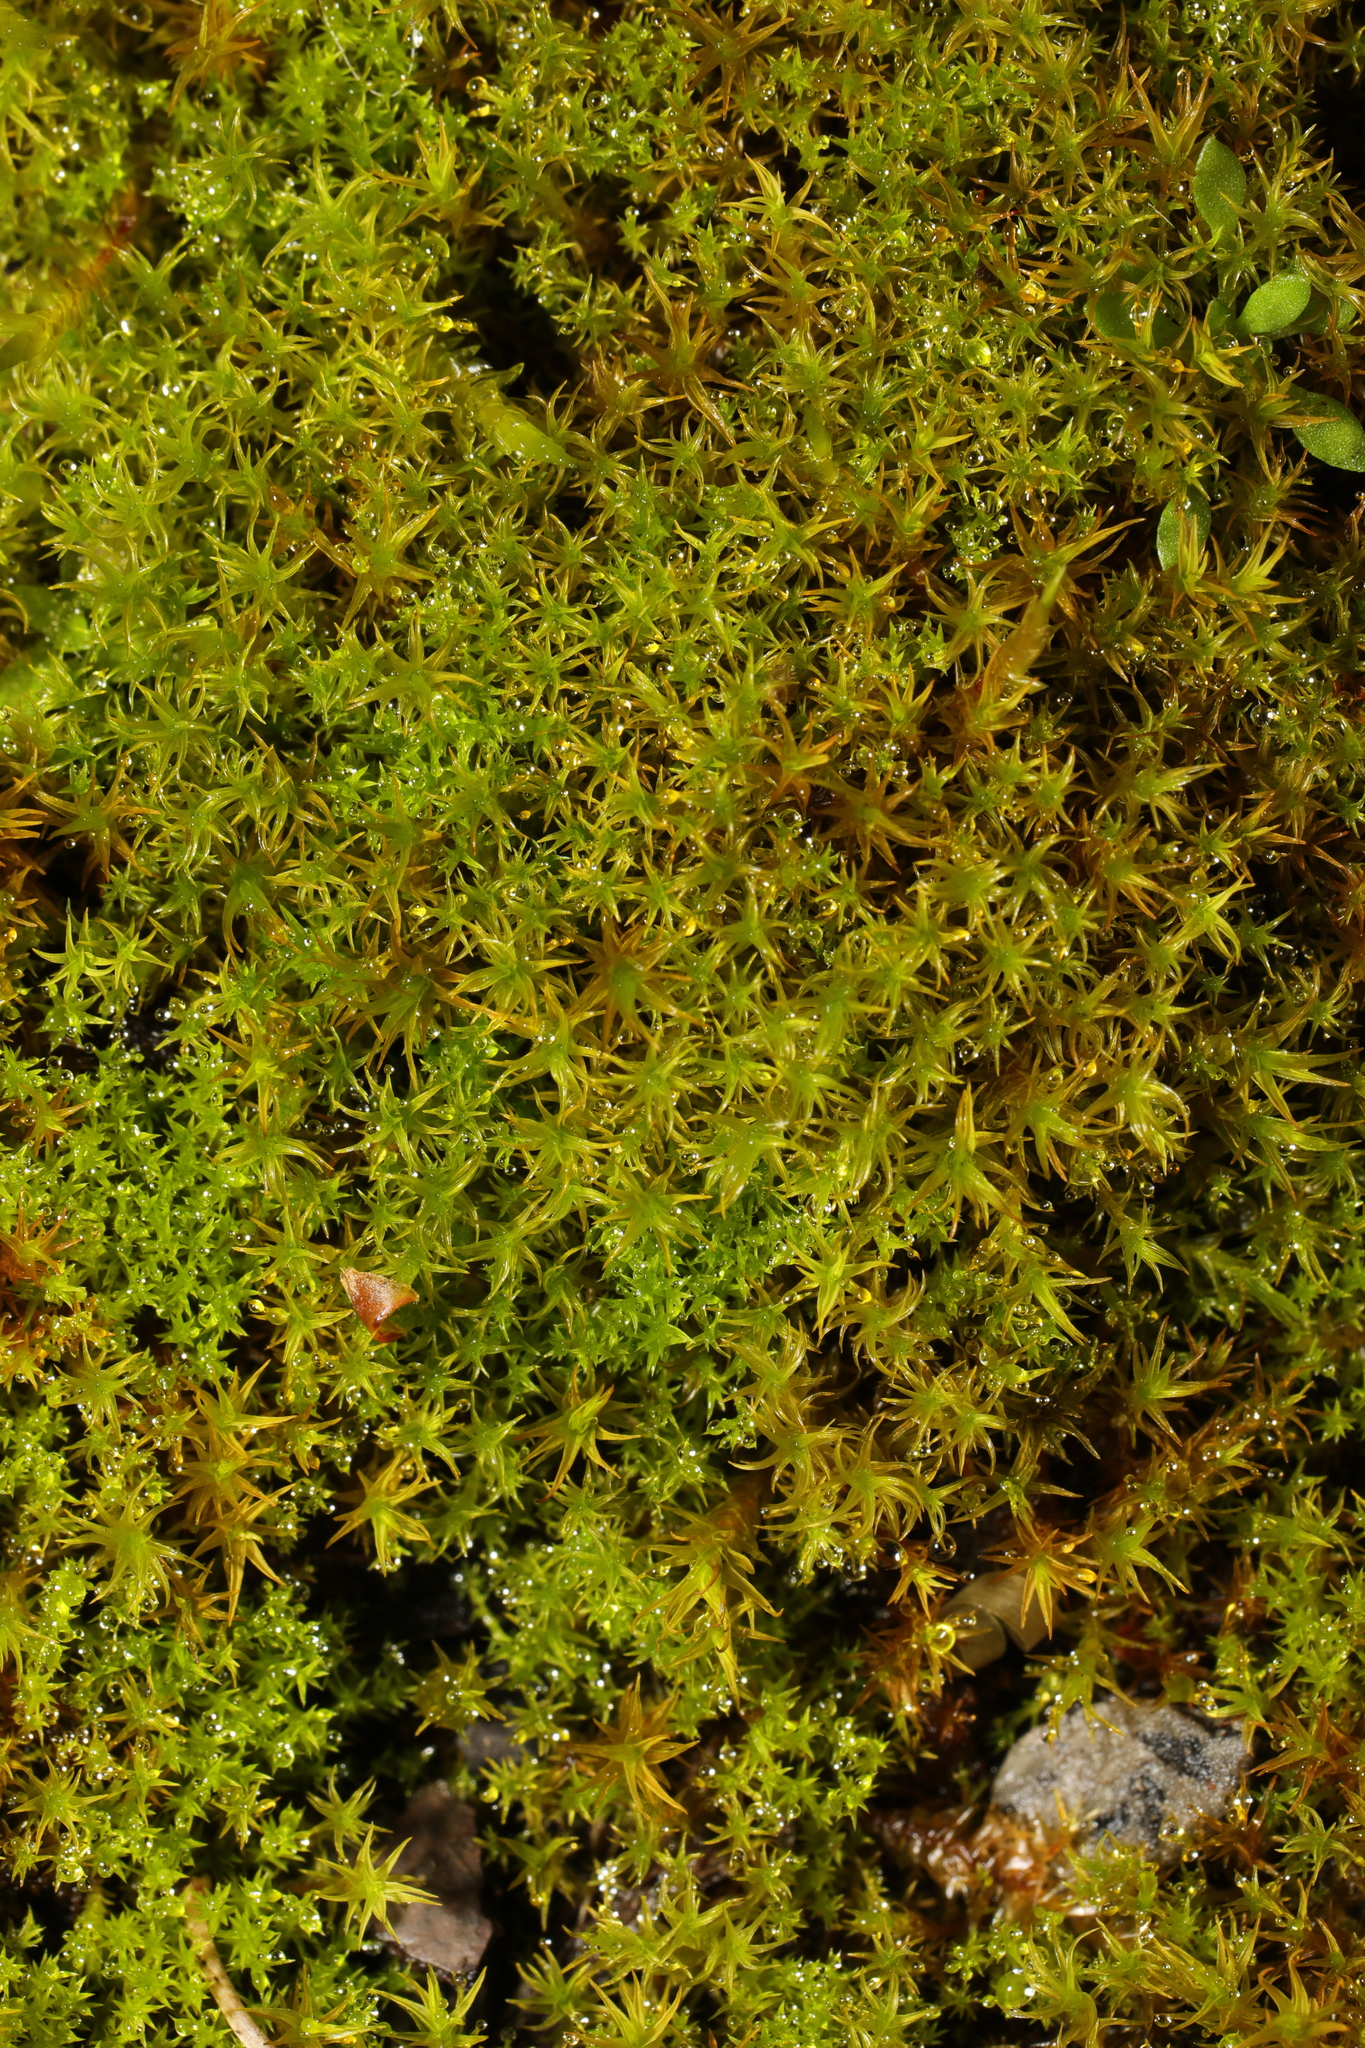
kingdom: Plantae
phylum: Bryophyta
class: Bryopsida
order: Pottiales
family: Pottiaceae
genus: Geheebia
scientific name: Geheebia fallax
